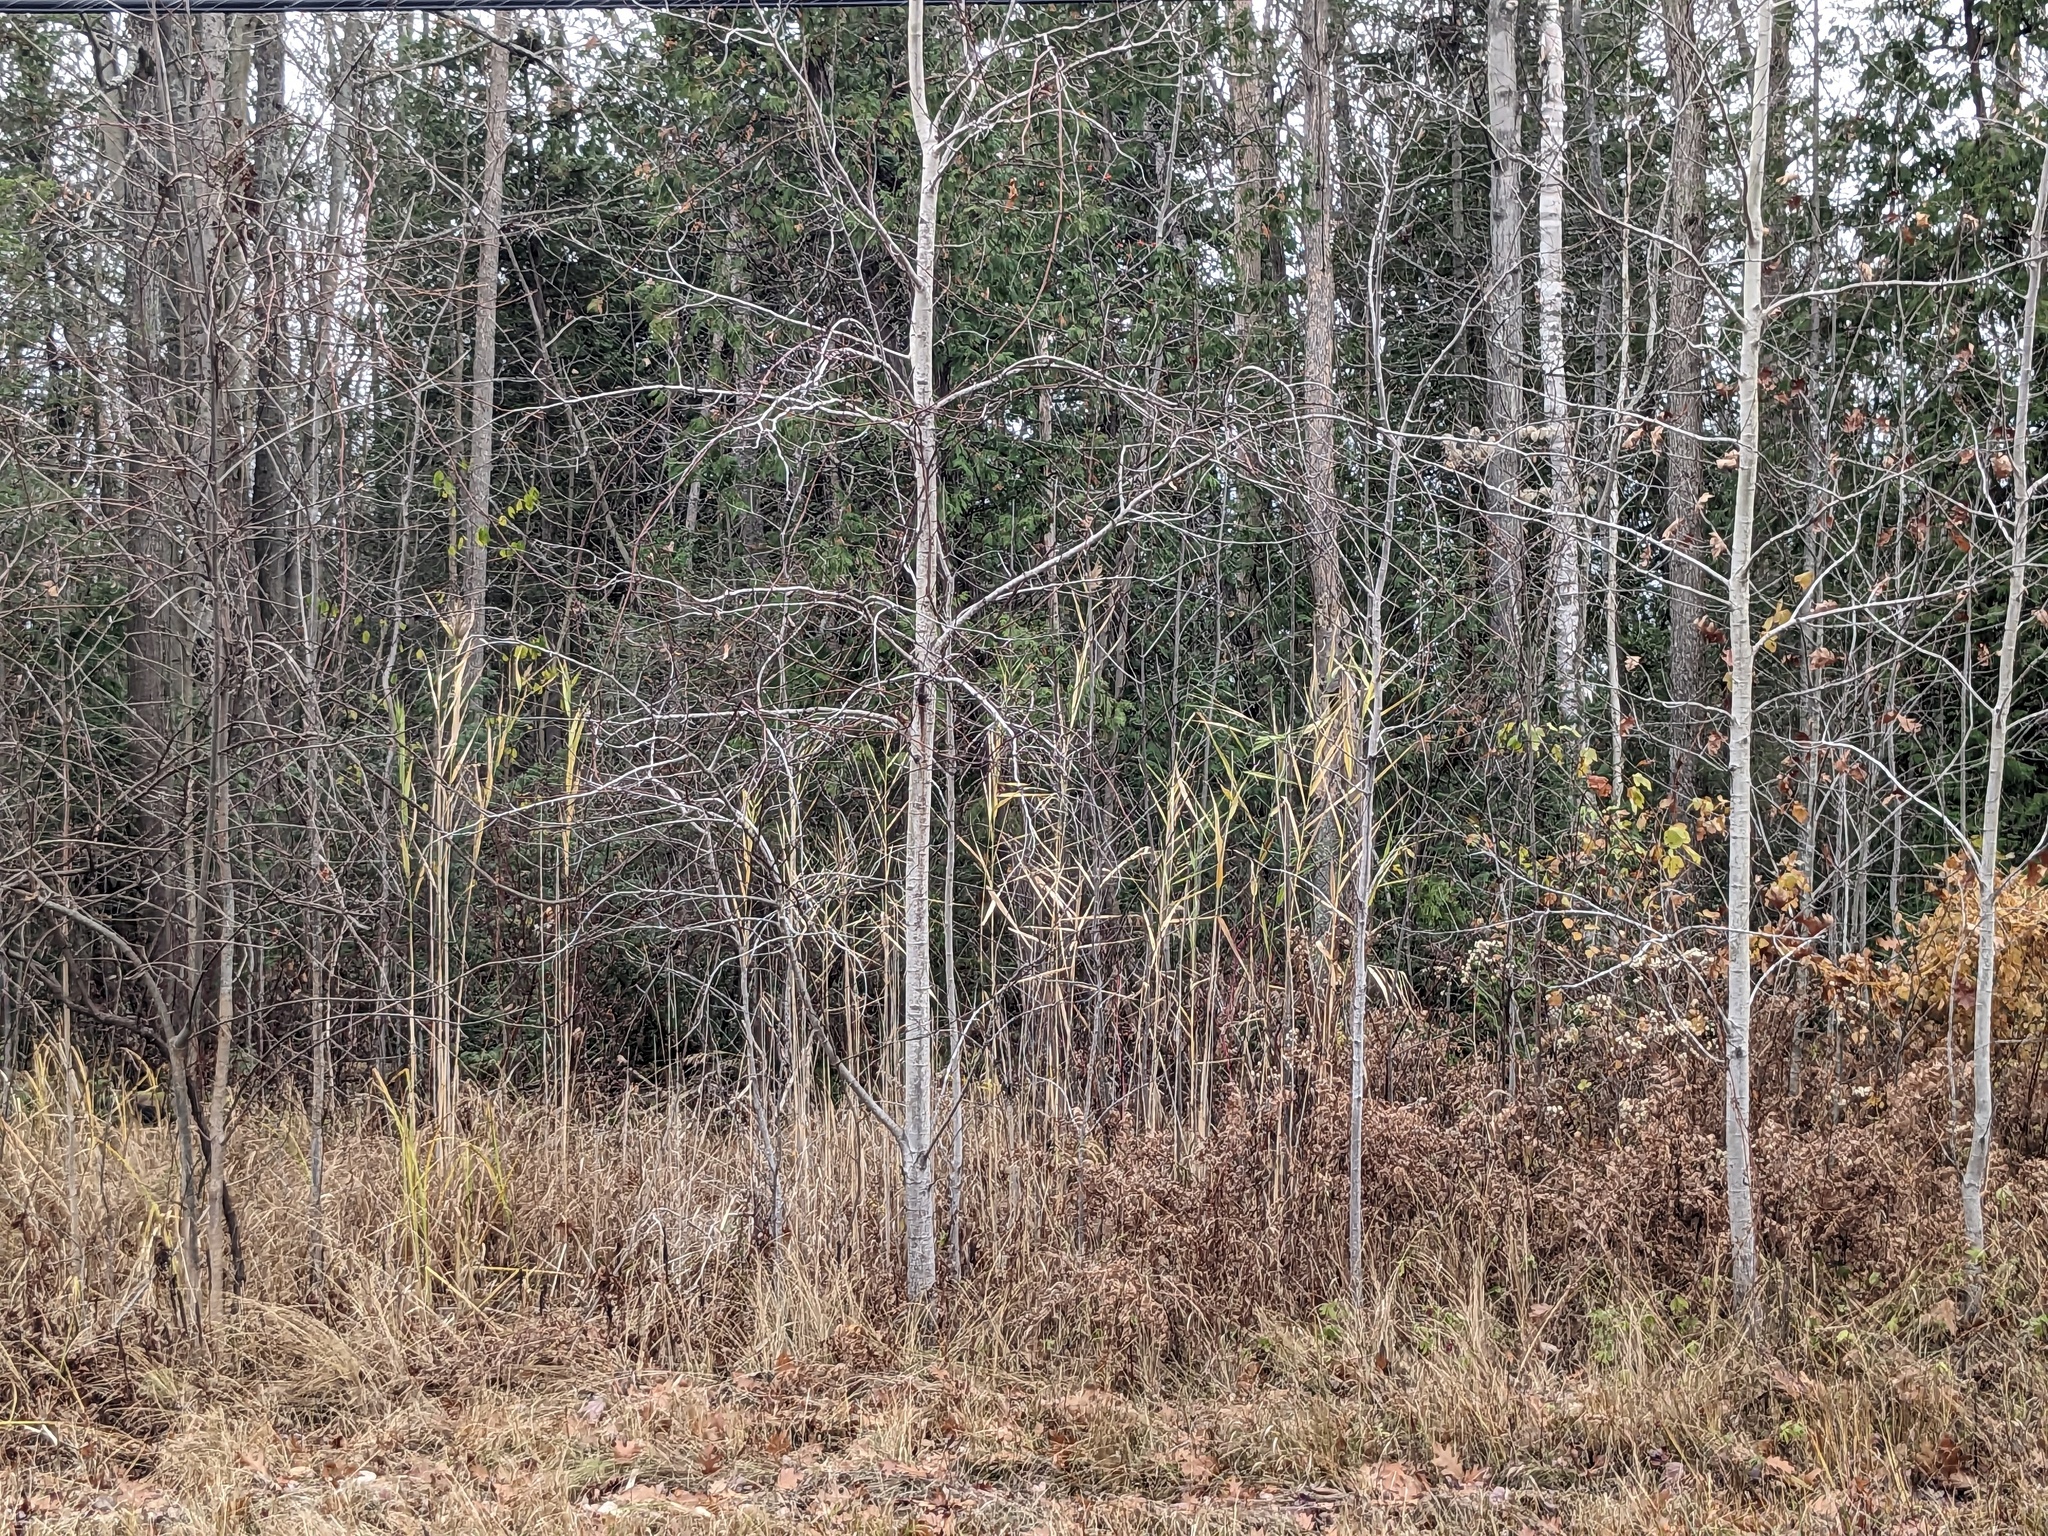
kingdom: Plantae
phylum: Tracheophyta
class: Liliopsida
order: Poales
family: Poaceae
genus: Phragmites
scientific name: Phragmites australis
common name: Common reed
